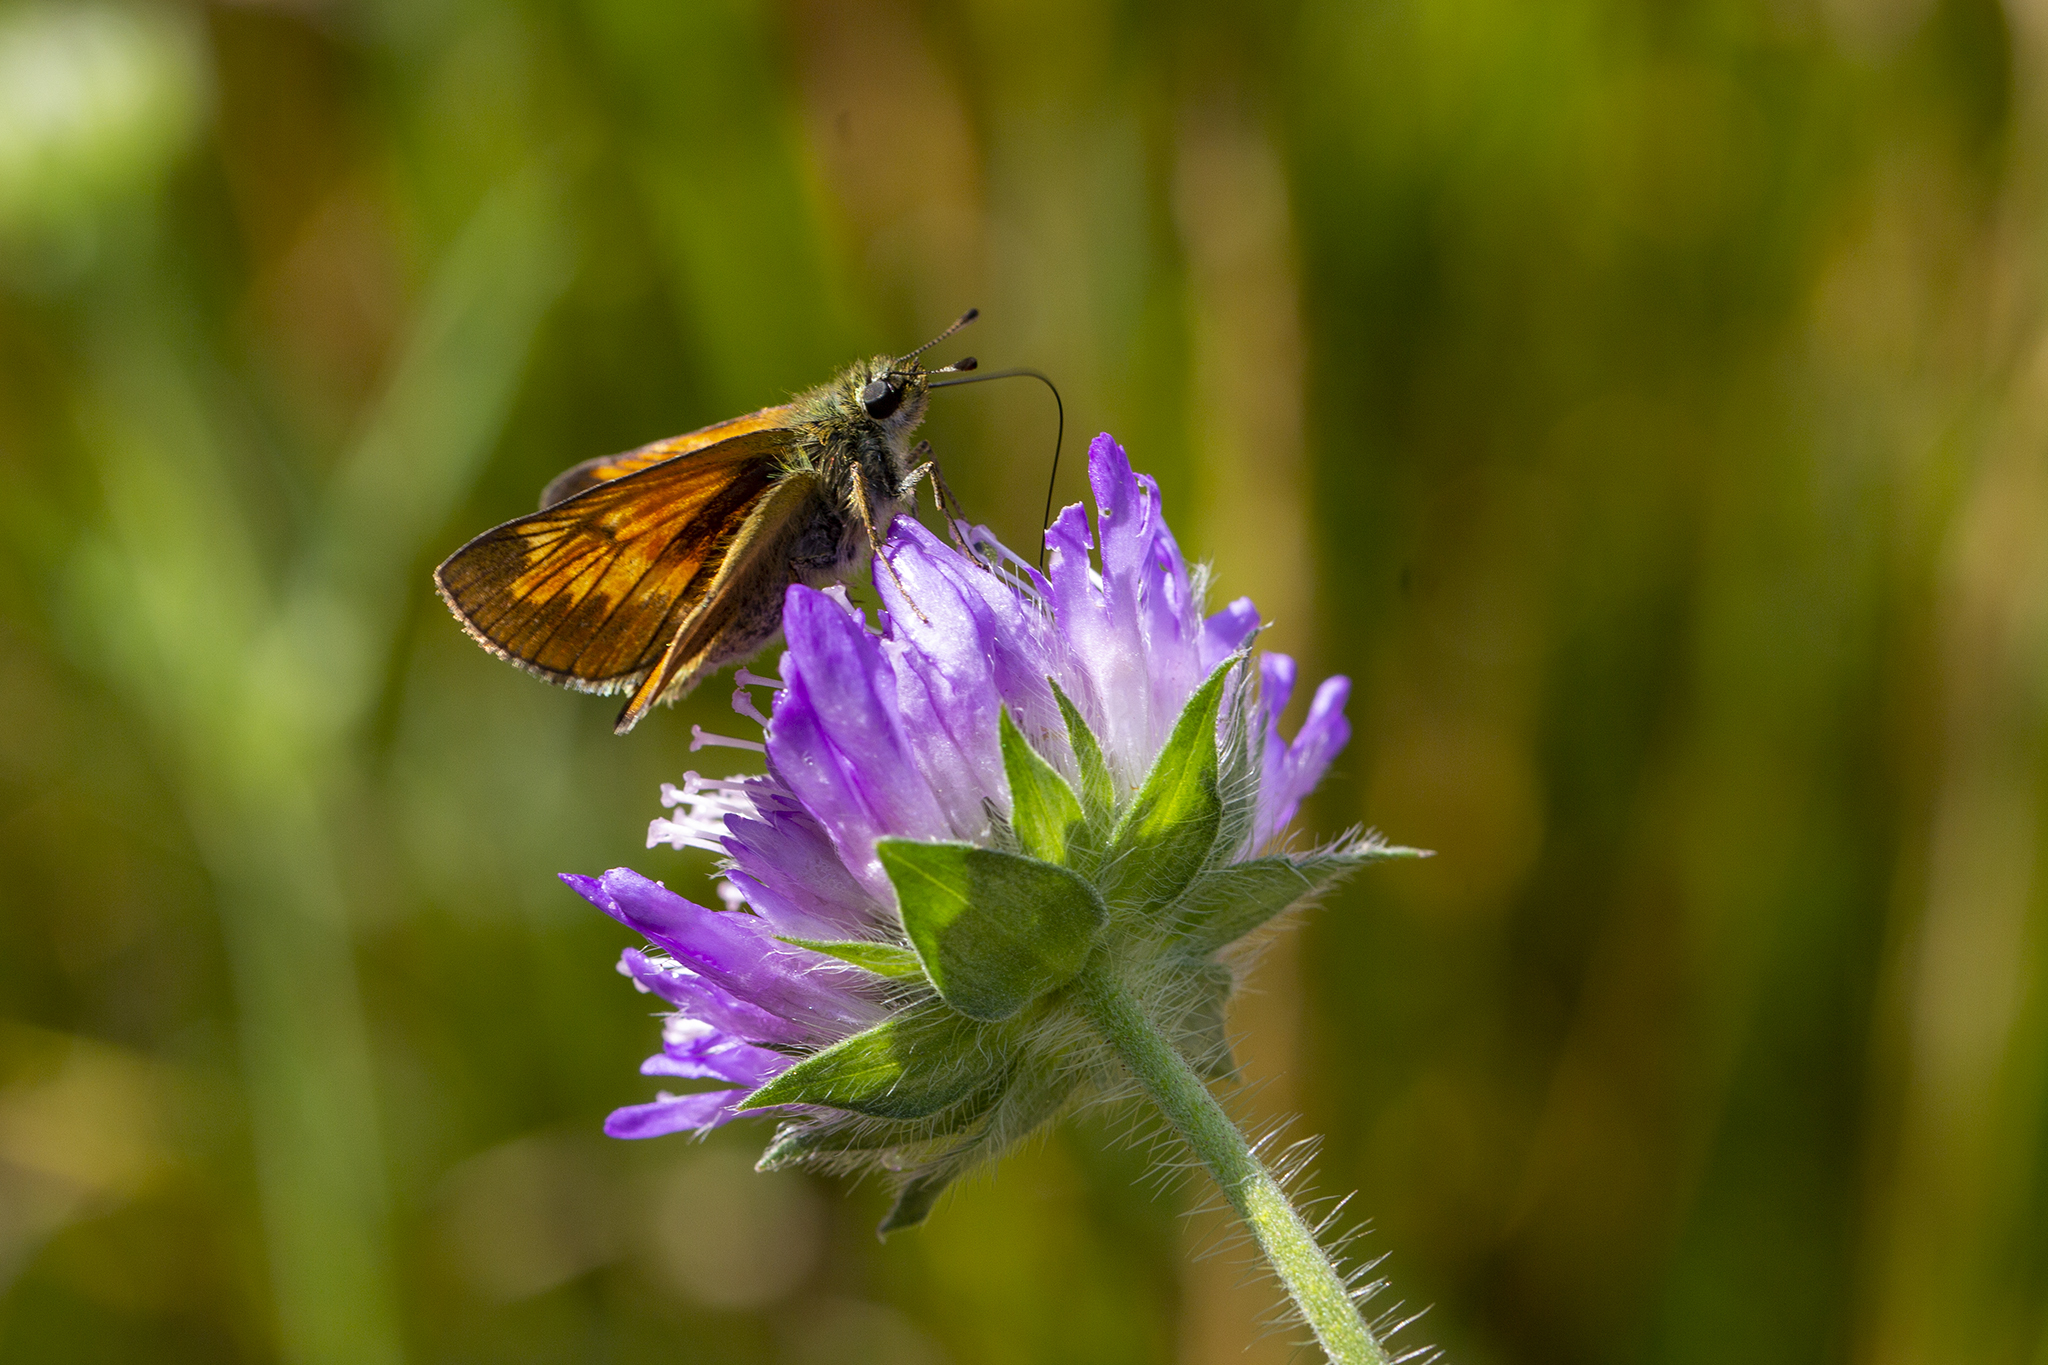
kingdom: Animalia
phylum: Arthropoda
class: Insecta
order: Lepidoptera
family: Hesperiidae
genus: Ochlodes
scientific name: Ochlodes venata
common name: Large skipper
